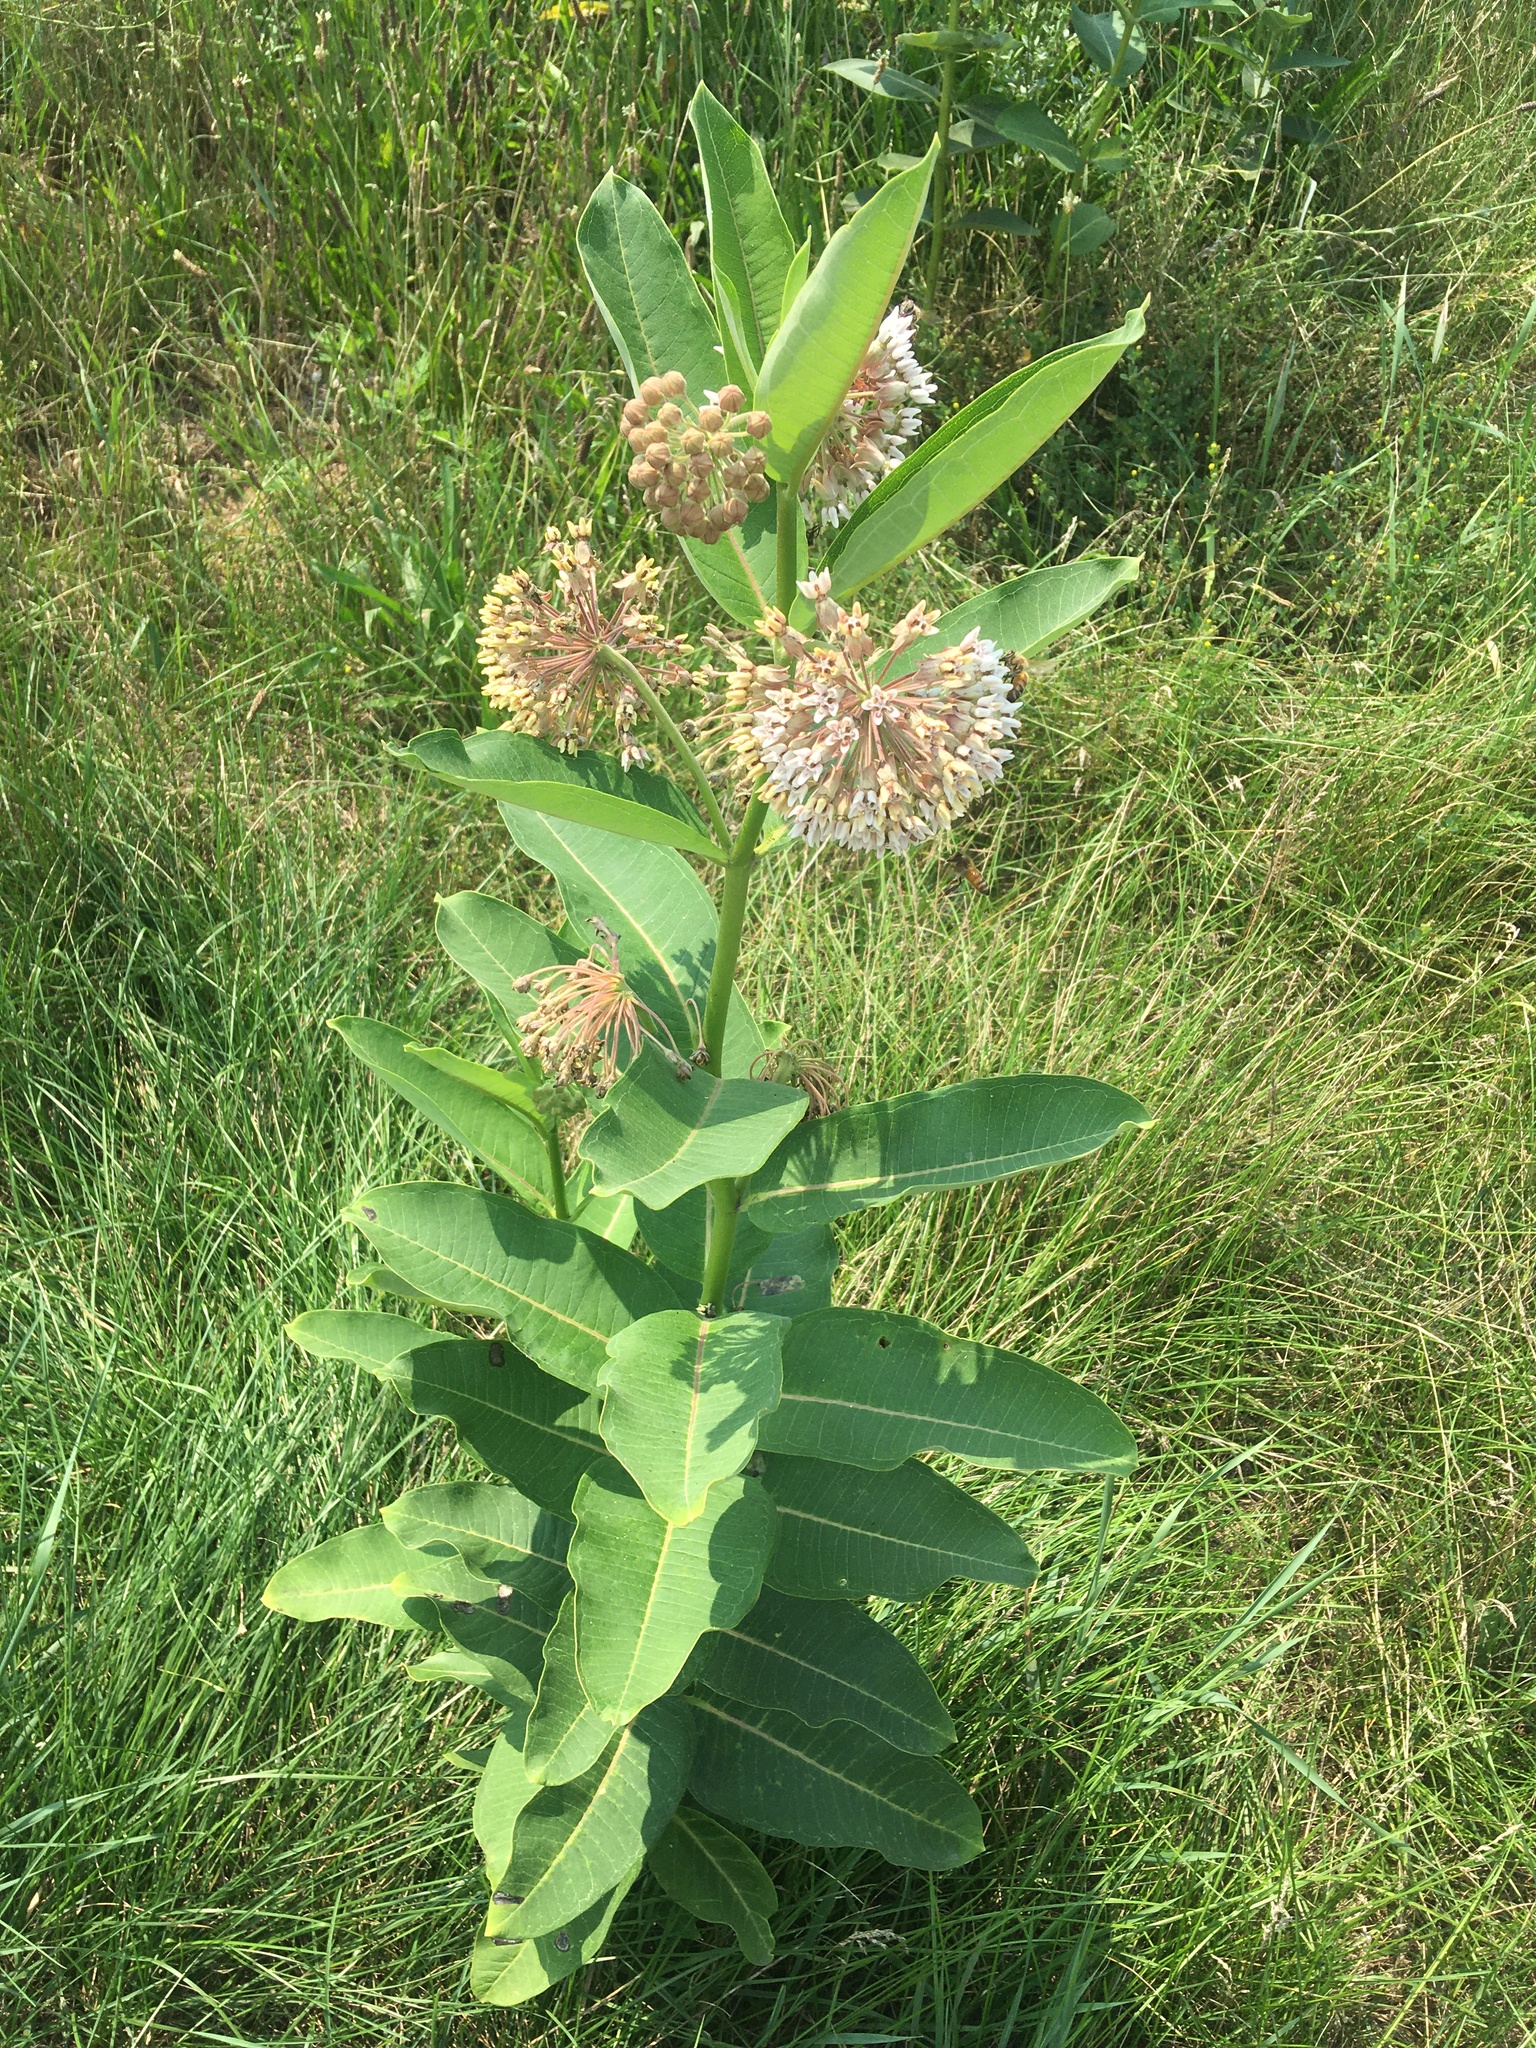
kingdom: Plantae
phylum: Tracheophyta
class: Magnoliopsida
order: Gentianales
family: Apocynaceae
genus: Asclepias
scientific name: Asclepias syriaca
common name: Common milkweed
